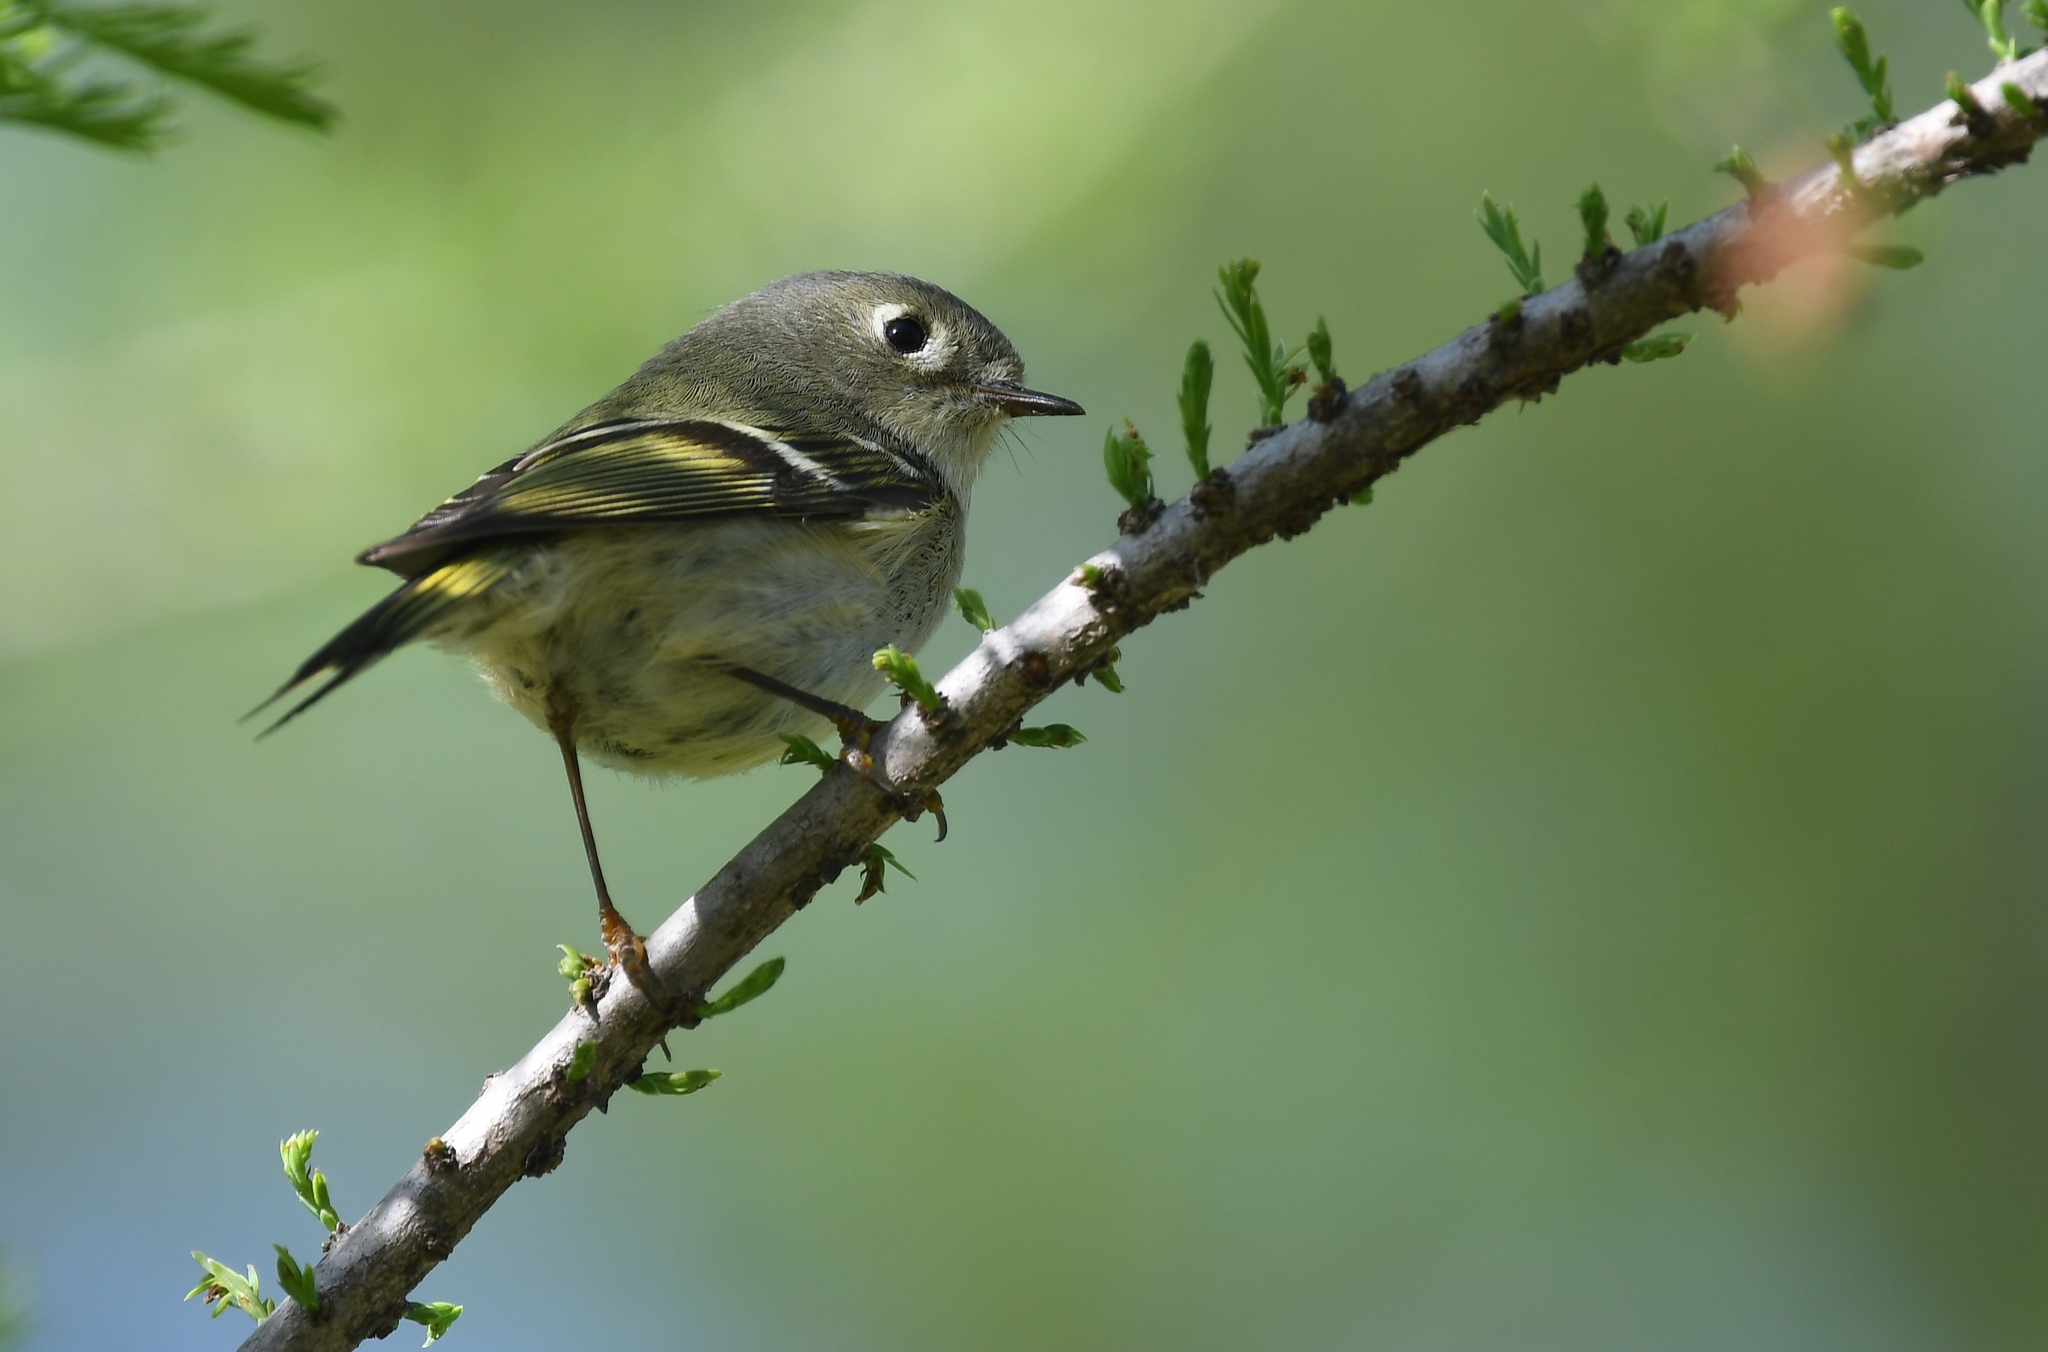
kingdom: Animalia
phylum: Chordata
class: Aves
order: Passeriformes
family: Regulidae
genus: Regulus
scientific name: Regulus calendula
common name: Ruby-crowned kinglet
